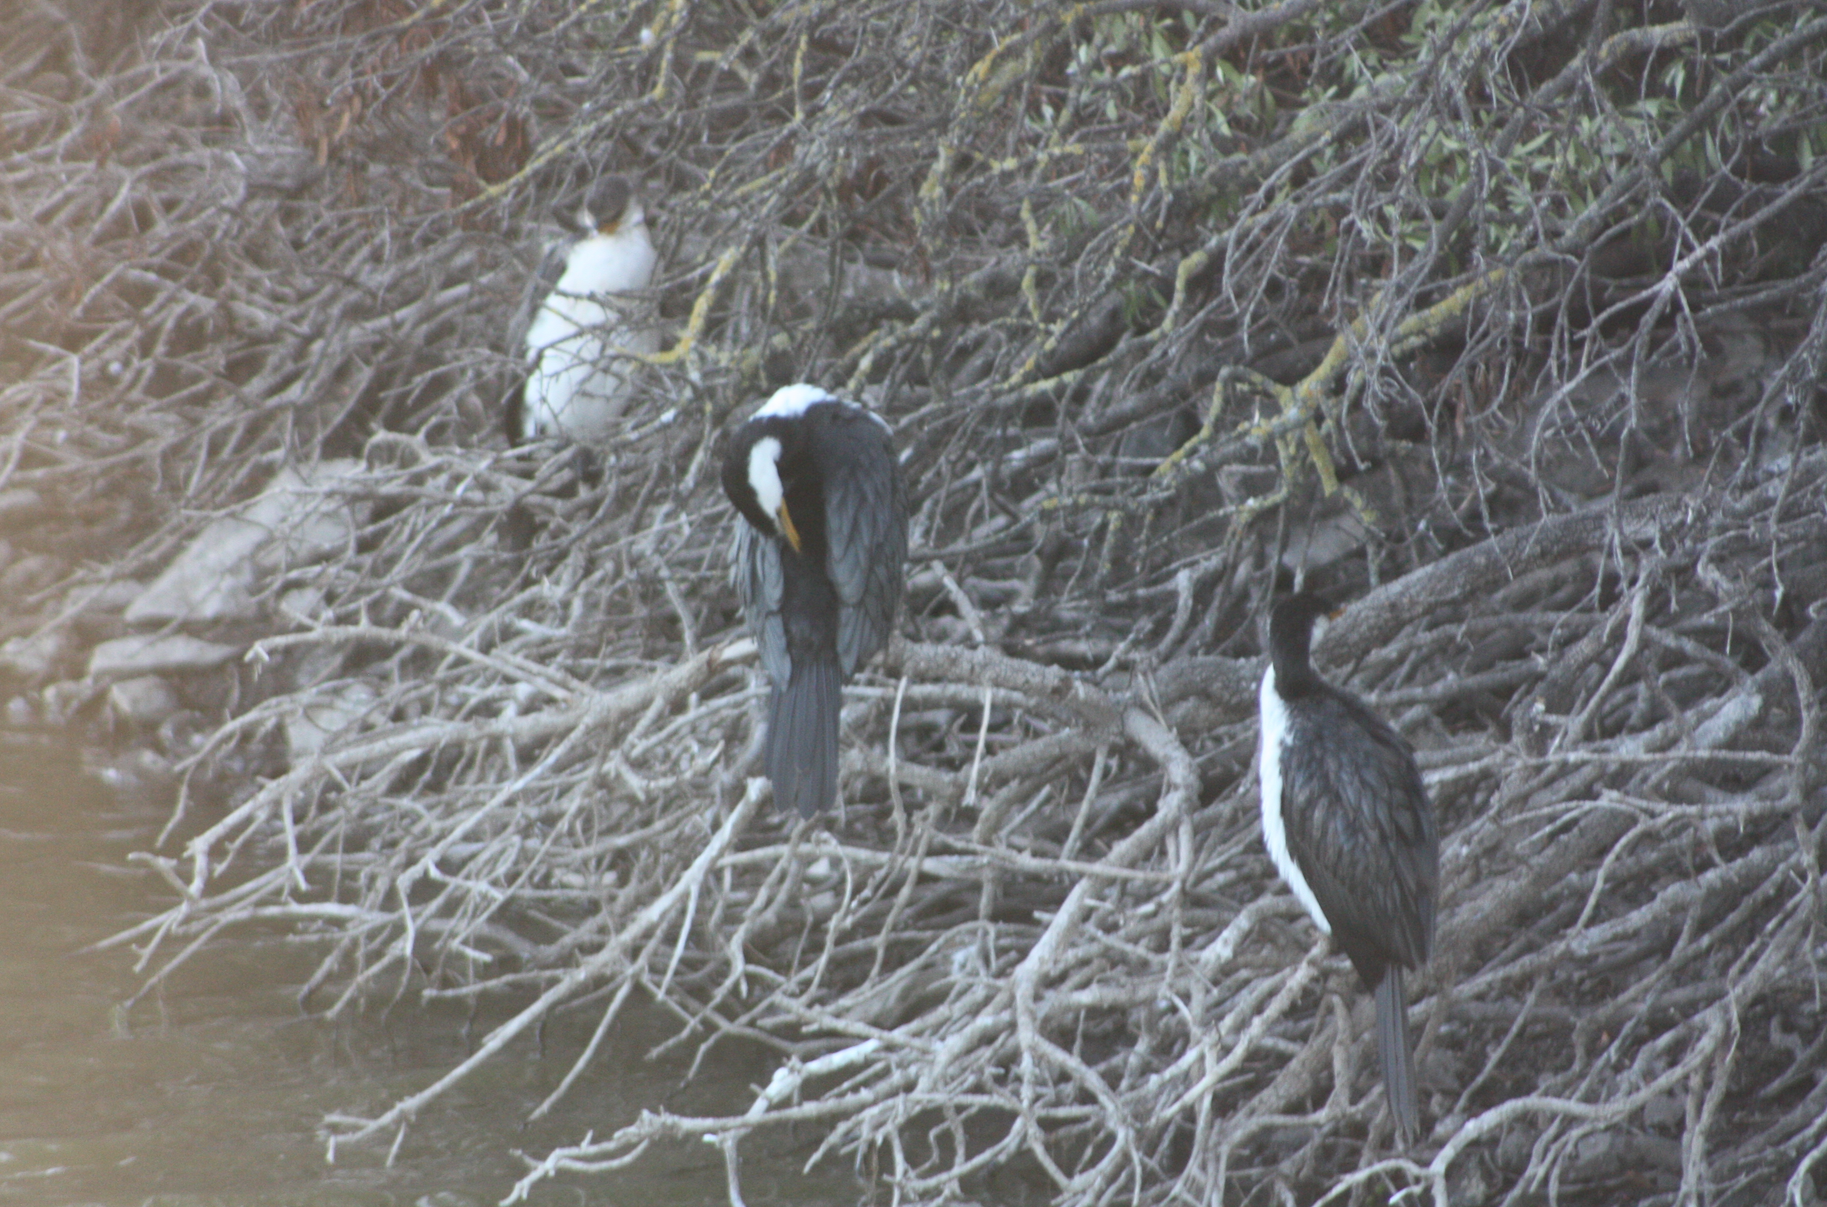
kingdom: Animalia
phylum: Chordata
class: Aves
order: Suliformes
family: Phalacrocoracidae
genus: Microcarbo
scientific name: Microcarbo melanoleucos
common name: Little pied cormorant
